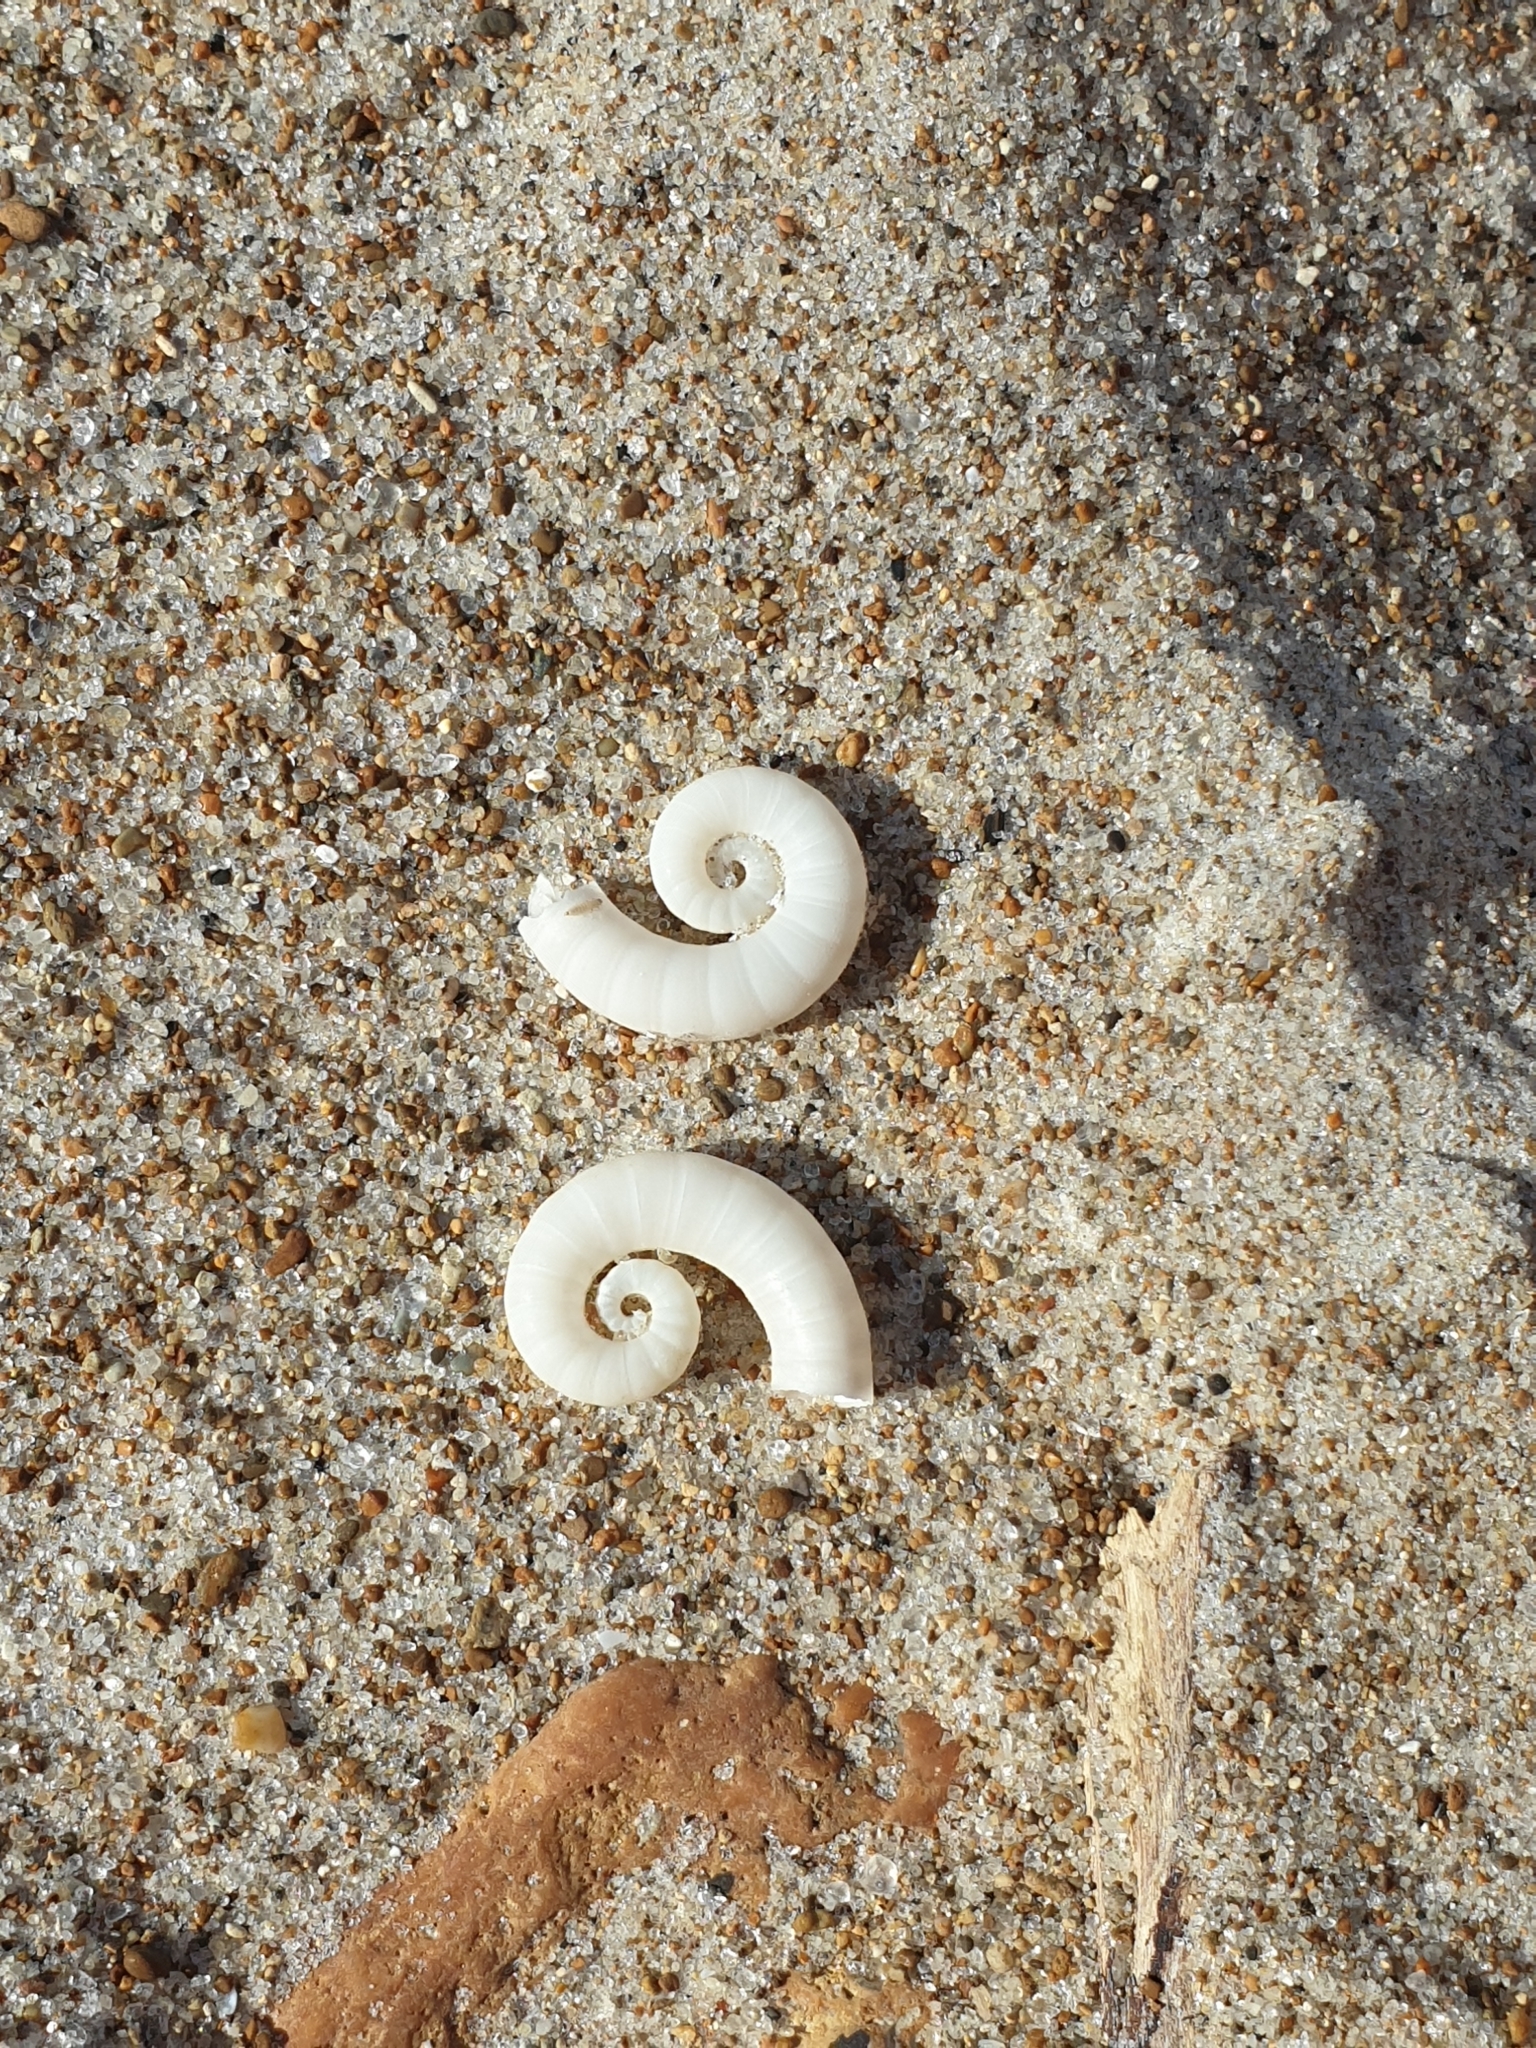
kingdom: Animalia
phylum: Mollusca
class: Cephalopoda
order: Spirulida
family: Spirulidae
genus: Spirula
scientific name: Spirula spirula
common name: Ram's horn squid
